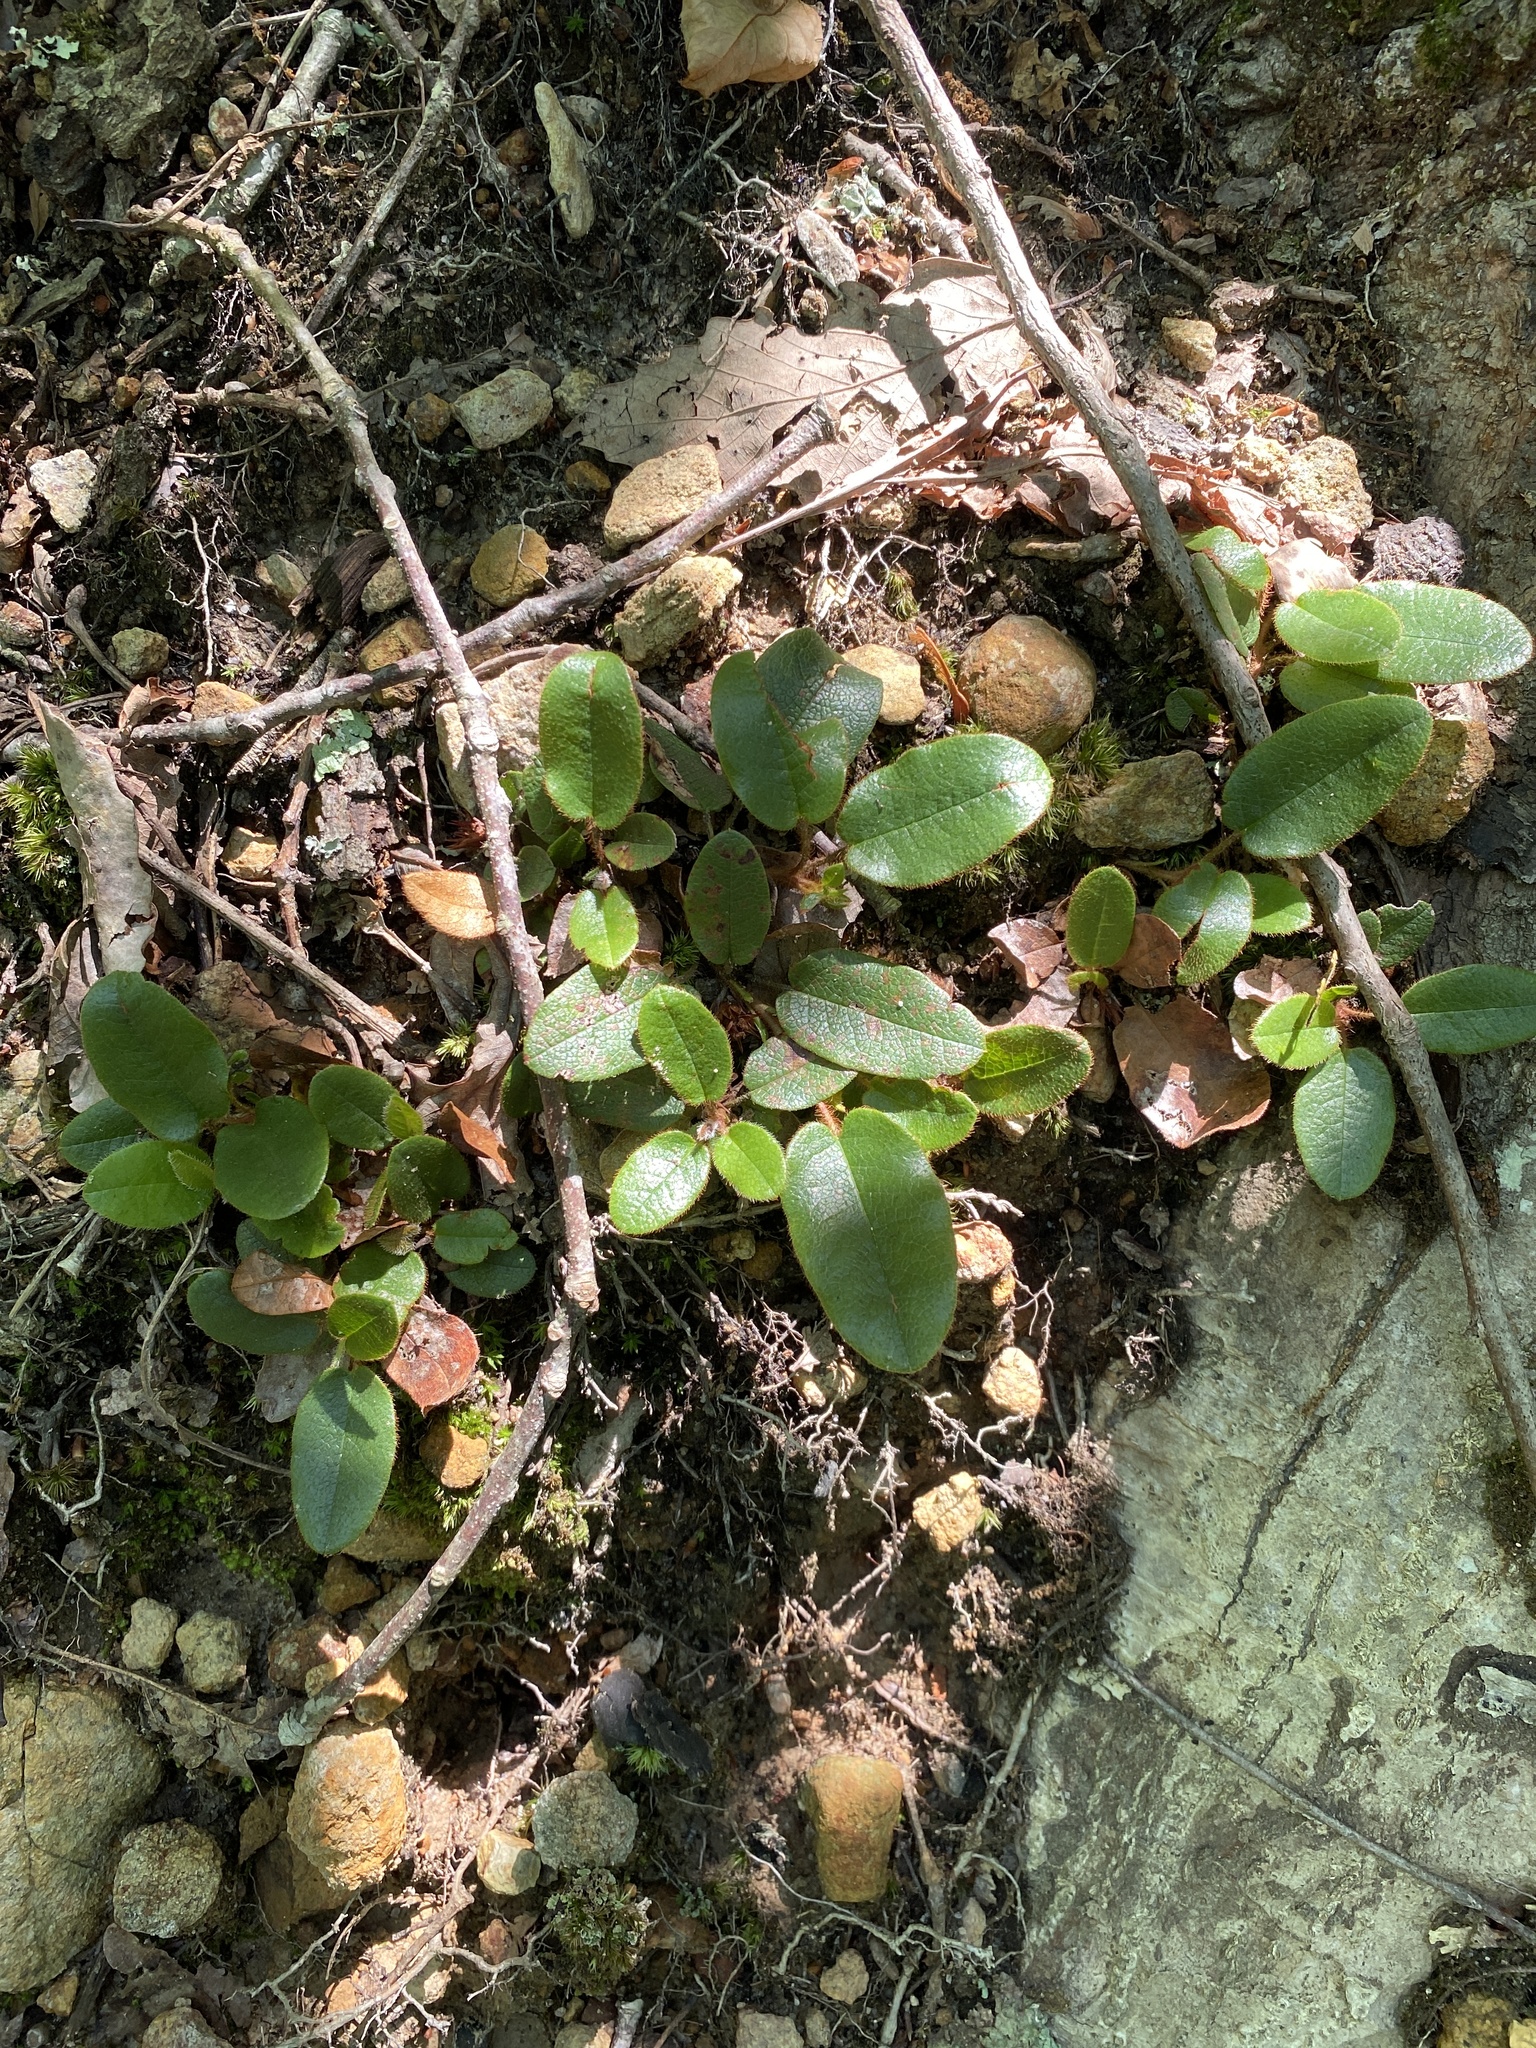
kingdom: Plantae
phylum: Tracheophyta
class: Magnoliopsida
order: Ericales
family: Ericaceae
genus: Epigaea
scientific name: Epigaea repens
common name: Gravelroot
